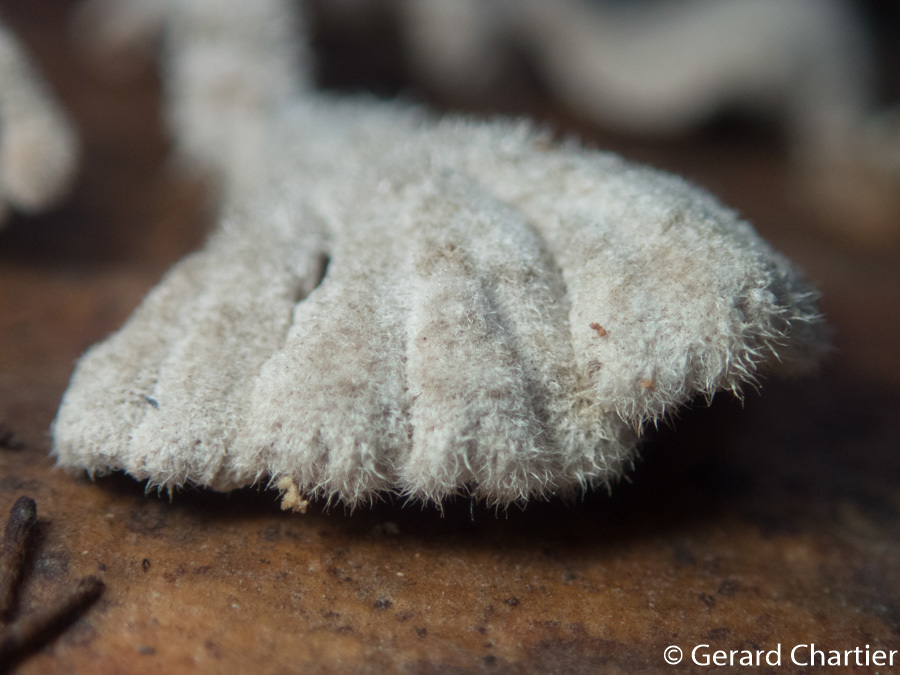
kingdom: Fungi
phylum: Basidiomycota
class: Agaricomycetes
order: Agaricales
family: Schizophyllaceae
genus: Schizophyllum
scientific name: Schizophyllum commune
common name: Common porecrust
